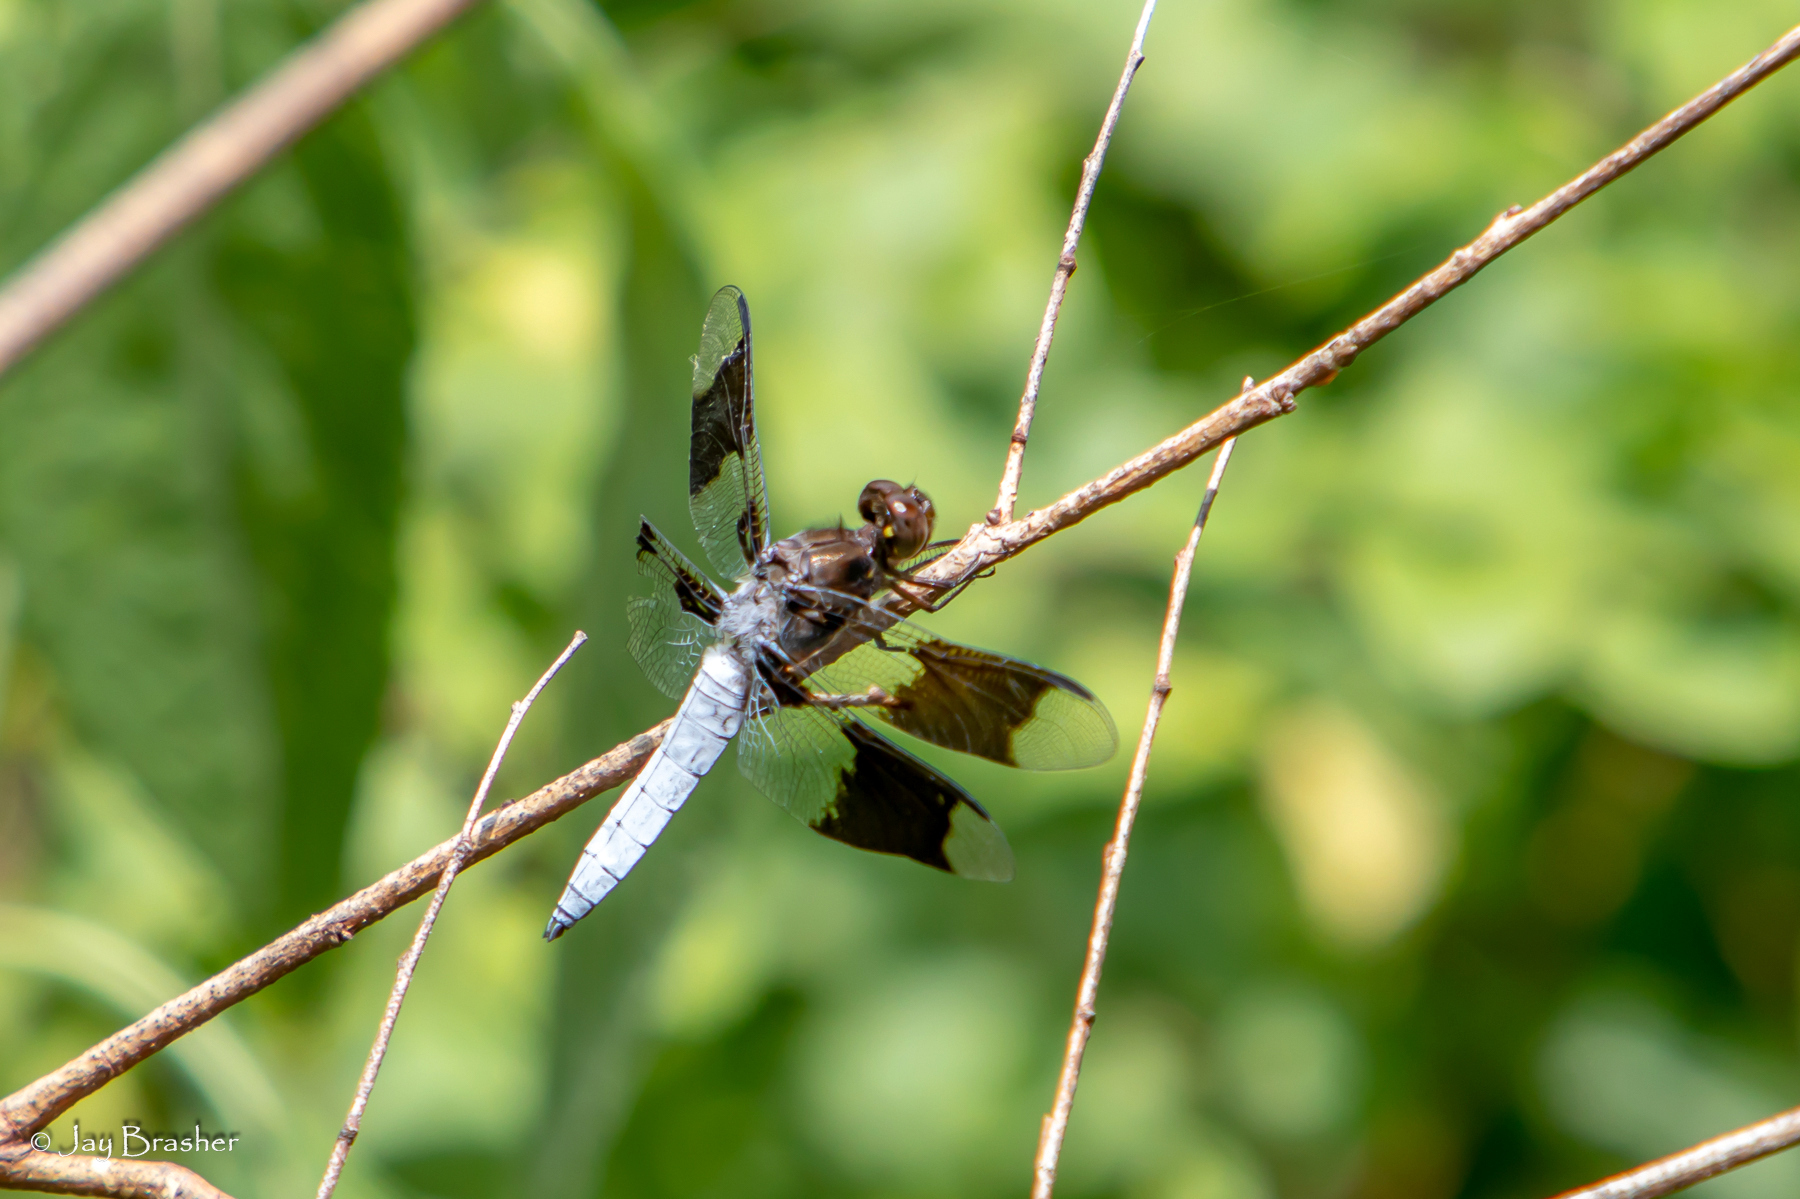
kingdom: Animalia
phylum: Arthropoda
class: Insecta
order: Odonata
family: Libellulidae
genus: Plathemis
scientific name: Plathemis lydia
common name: Common whitetail
